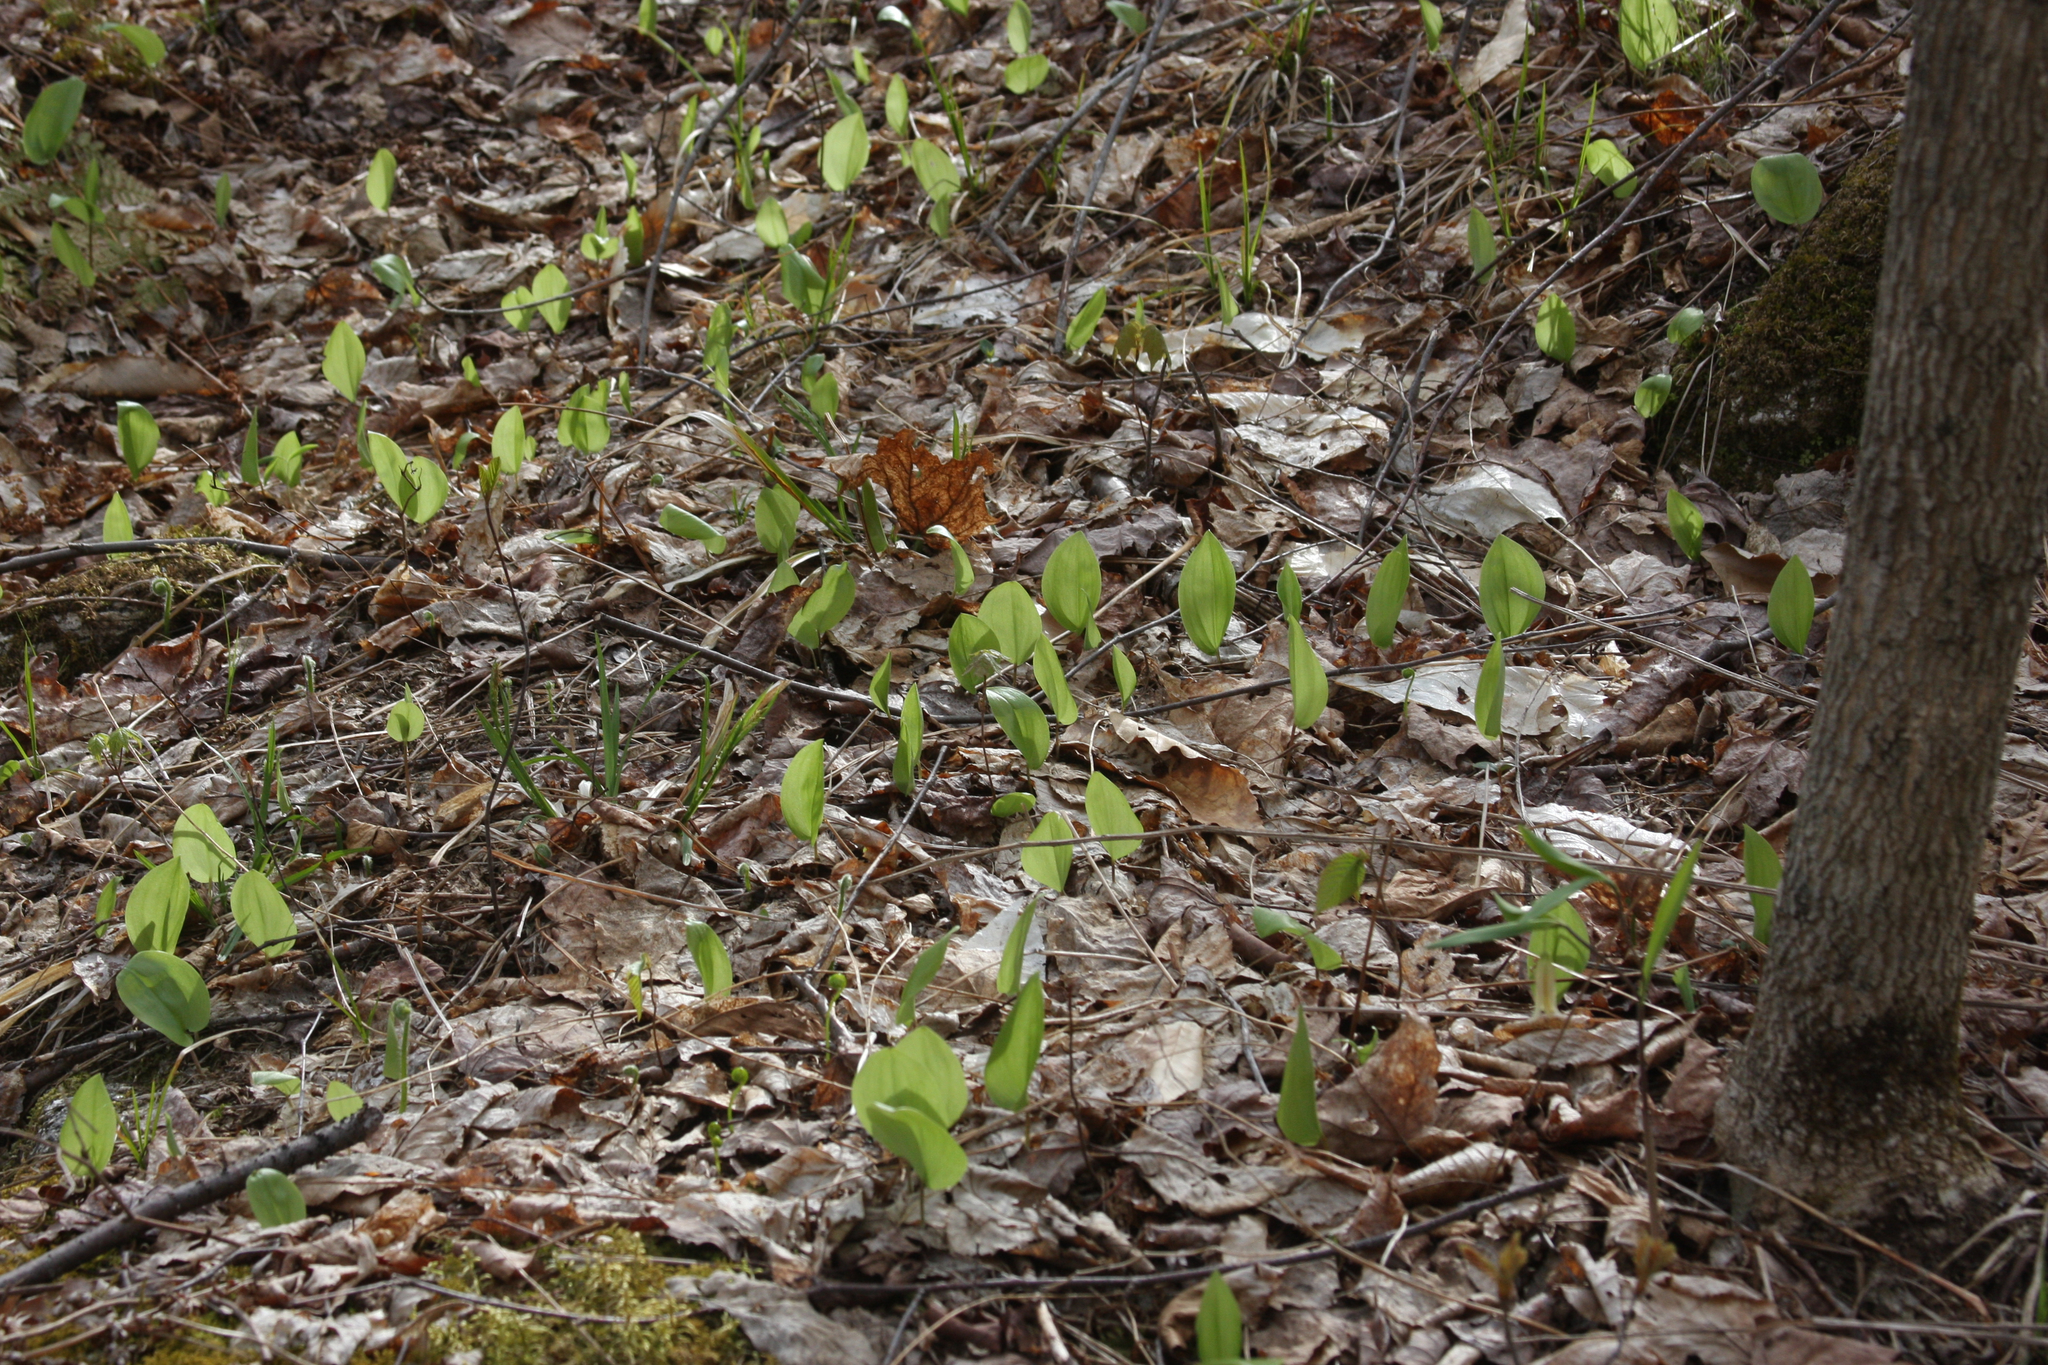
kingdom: Plantae
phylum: Tracheophyta
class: Liliopsida
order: Asparagales
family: Asparagaceae
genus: Maianthemum
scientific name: Maianthemum canadense
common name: False lily-of-the-valley
